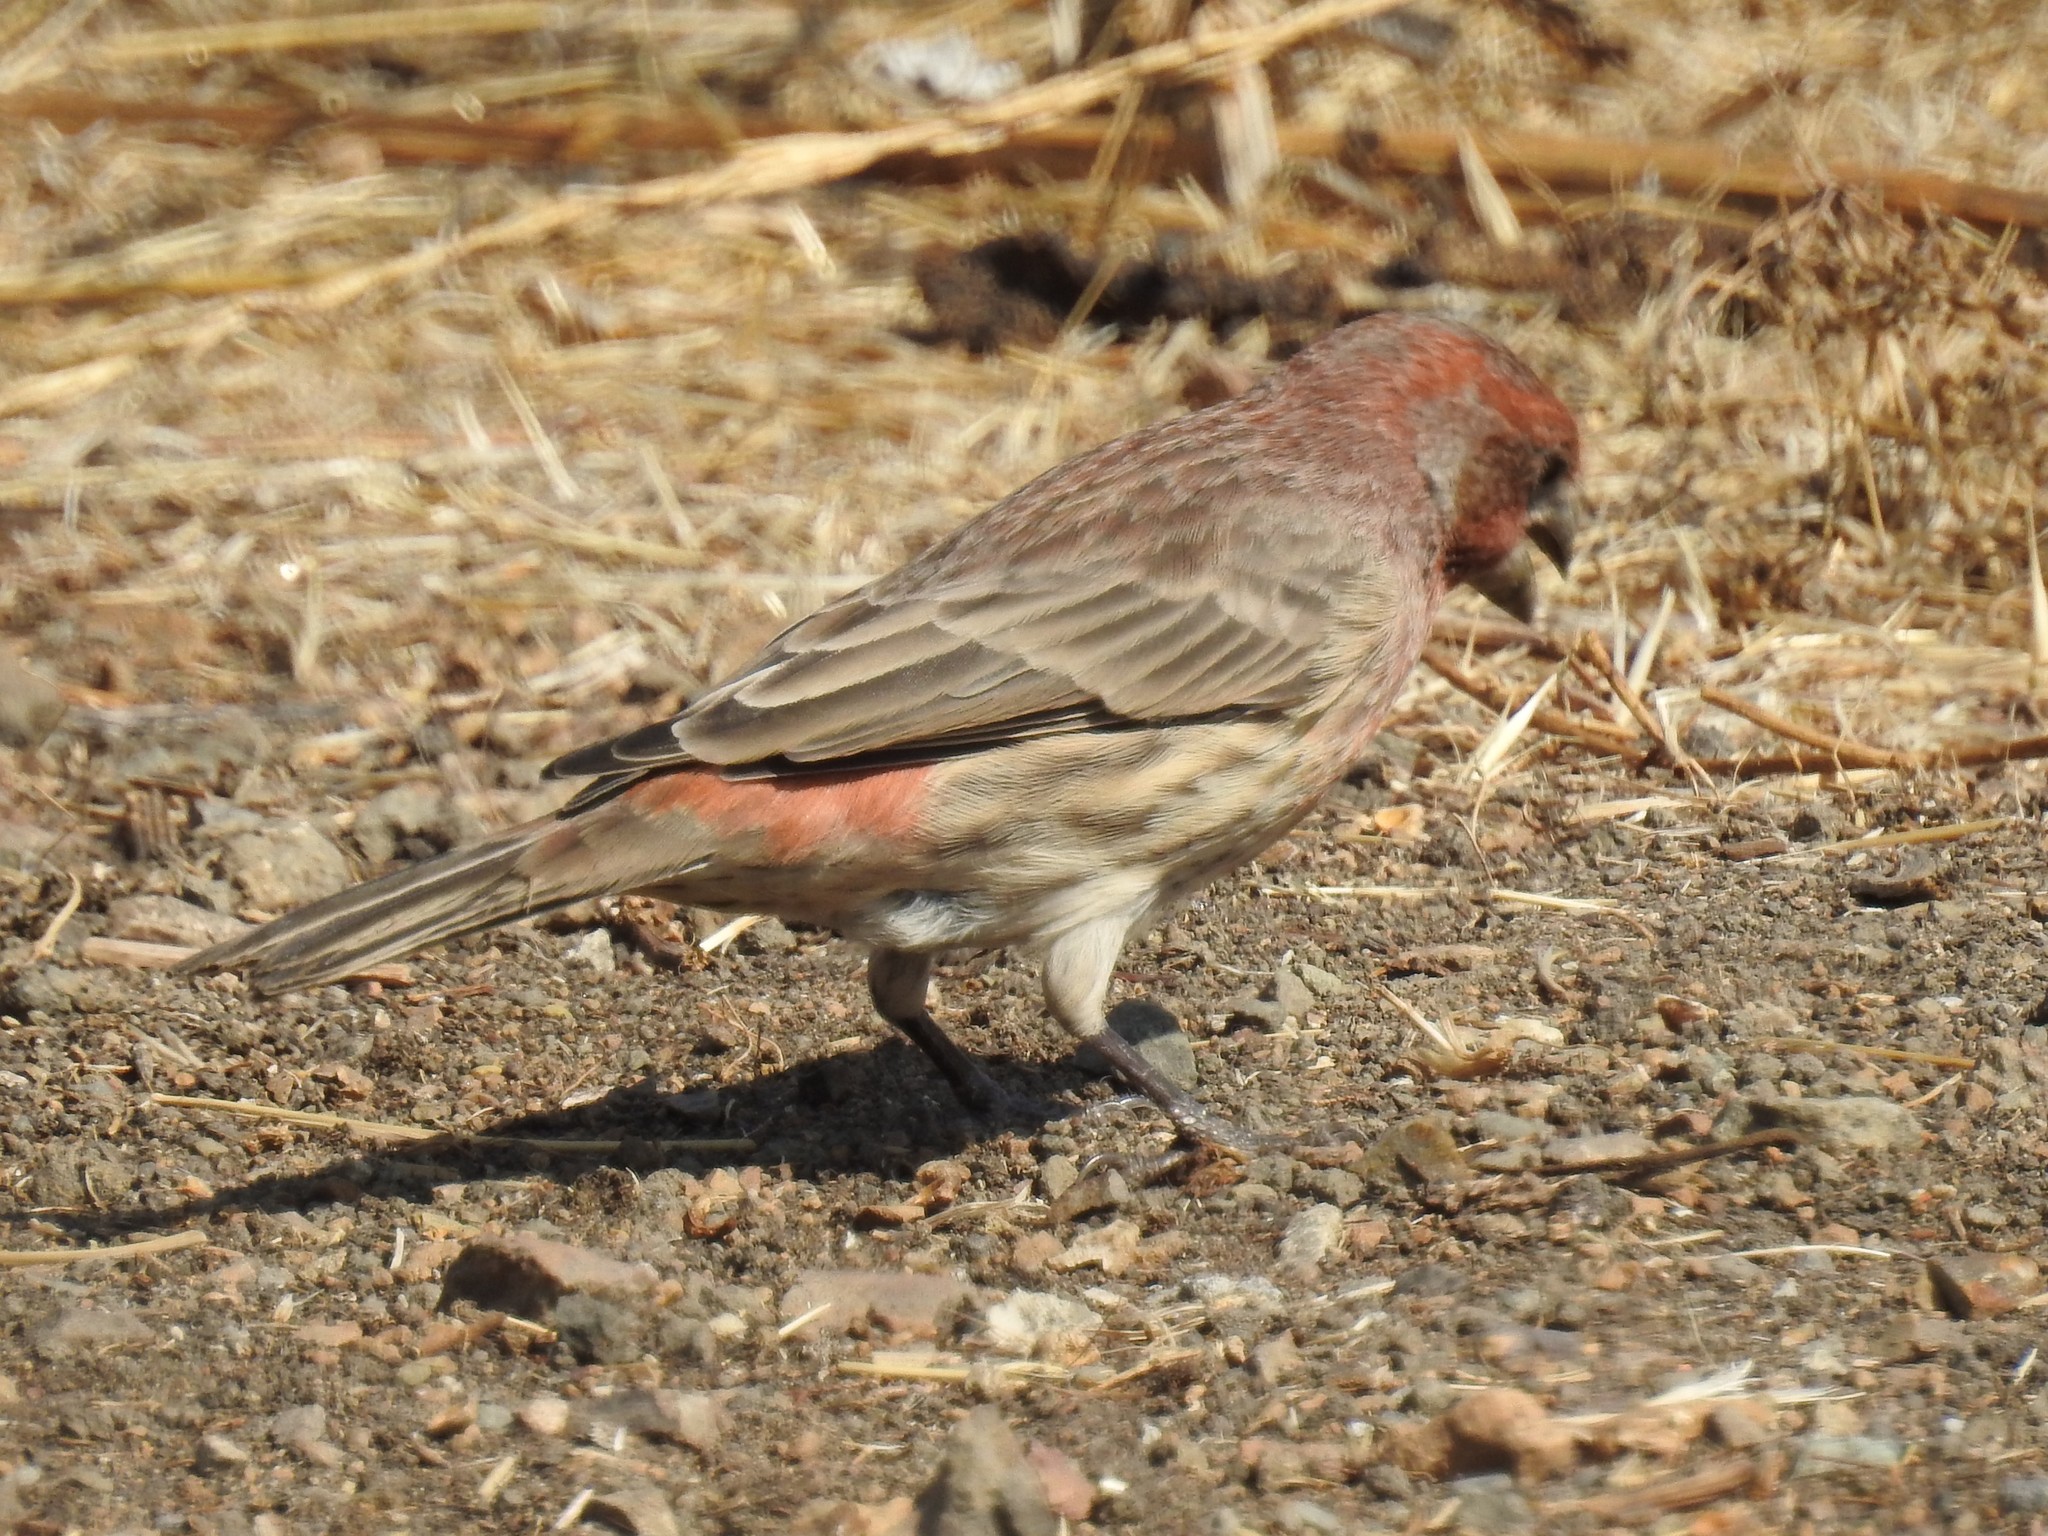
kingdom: Animalia
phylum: Chordata
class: Aves
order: Passeriformes
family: Fringillidae
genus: Haemorhous
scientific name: Haemorhous mexicanus
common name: House finch
